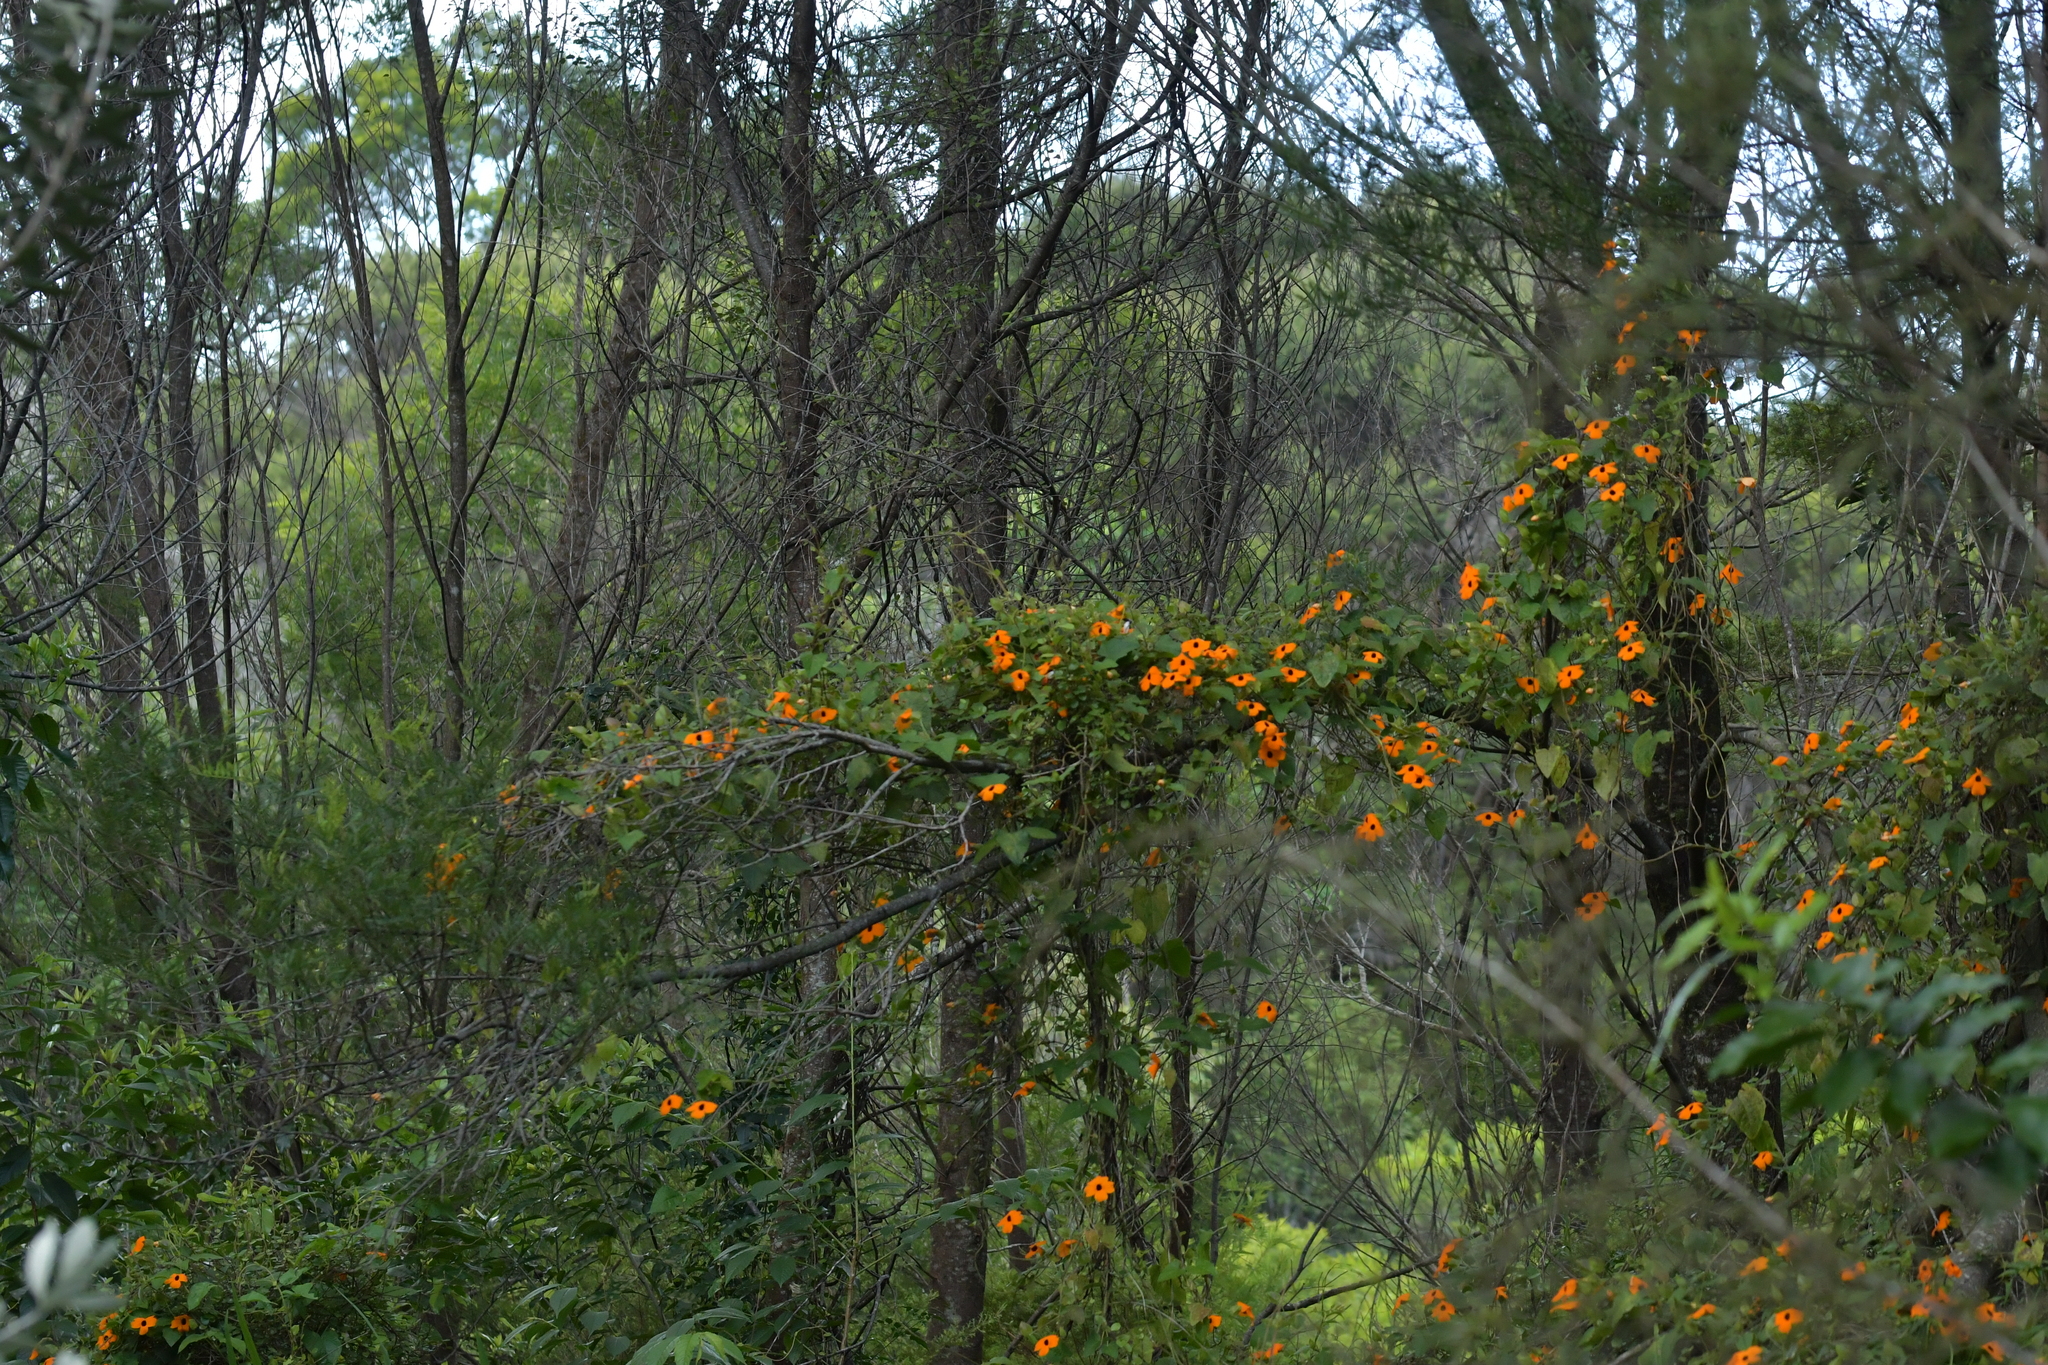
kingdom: Plantae
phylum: Tracheophyta
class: Magnoliopsida
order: Lamiales
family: Acanthaceae
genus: Thunbergia
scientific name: Thunbergia alata
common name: Blackeyed susan vine
